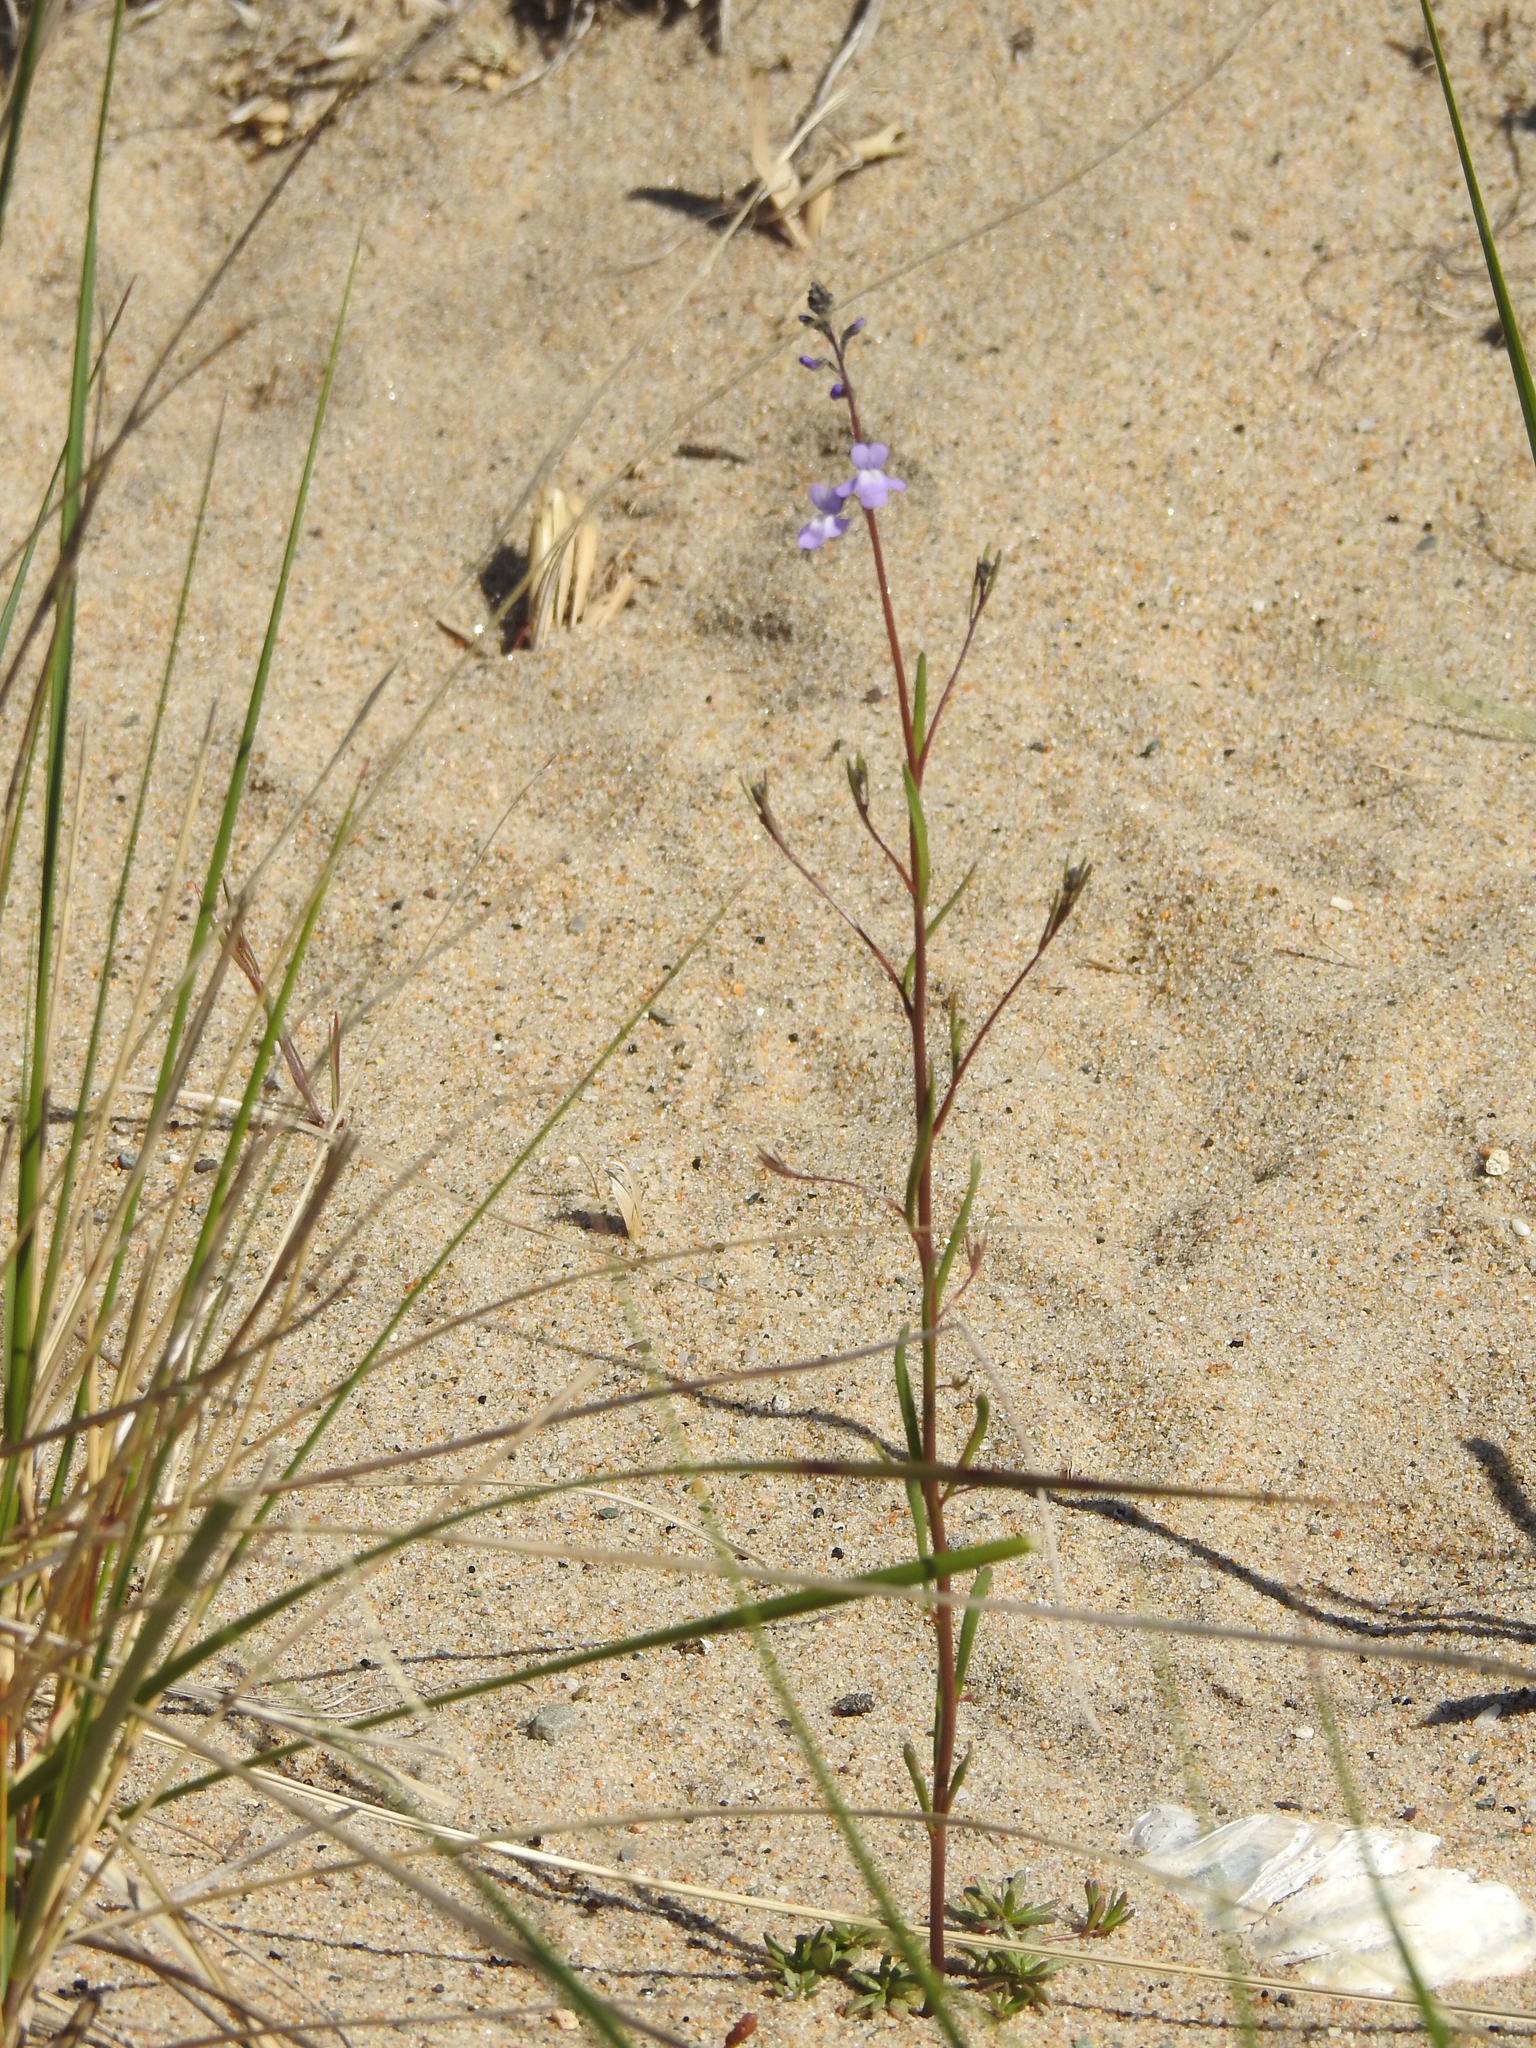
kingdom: Plantae
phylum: Tracheophyta
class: Magnoliopsida
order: Lamiales
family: Plantaginaceae
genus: Nuttallanthus
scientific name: Nuttallanthus canadensis
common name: Blue toadflax
